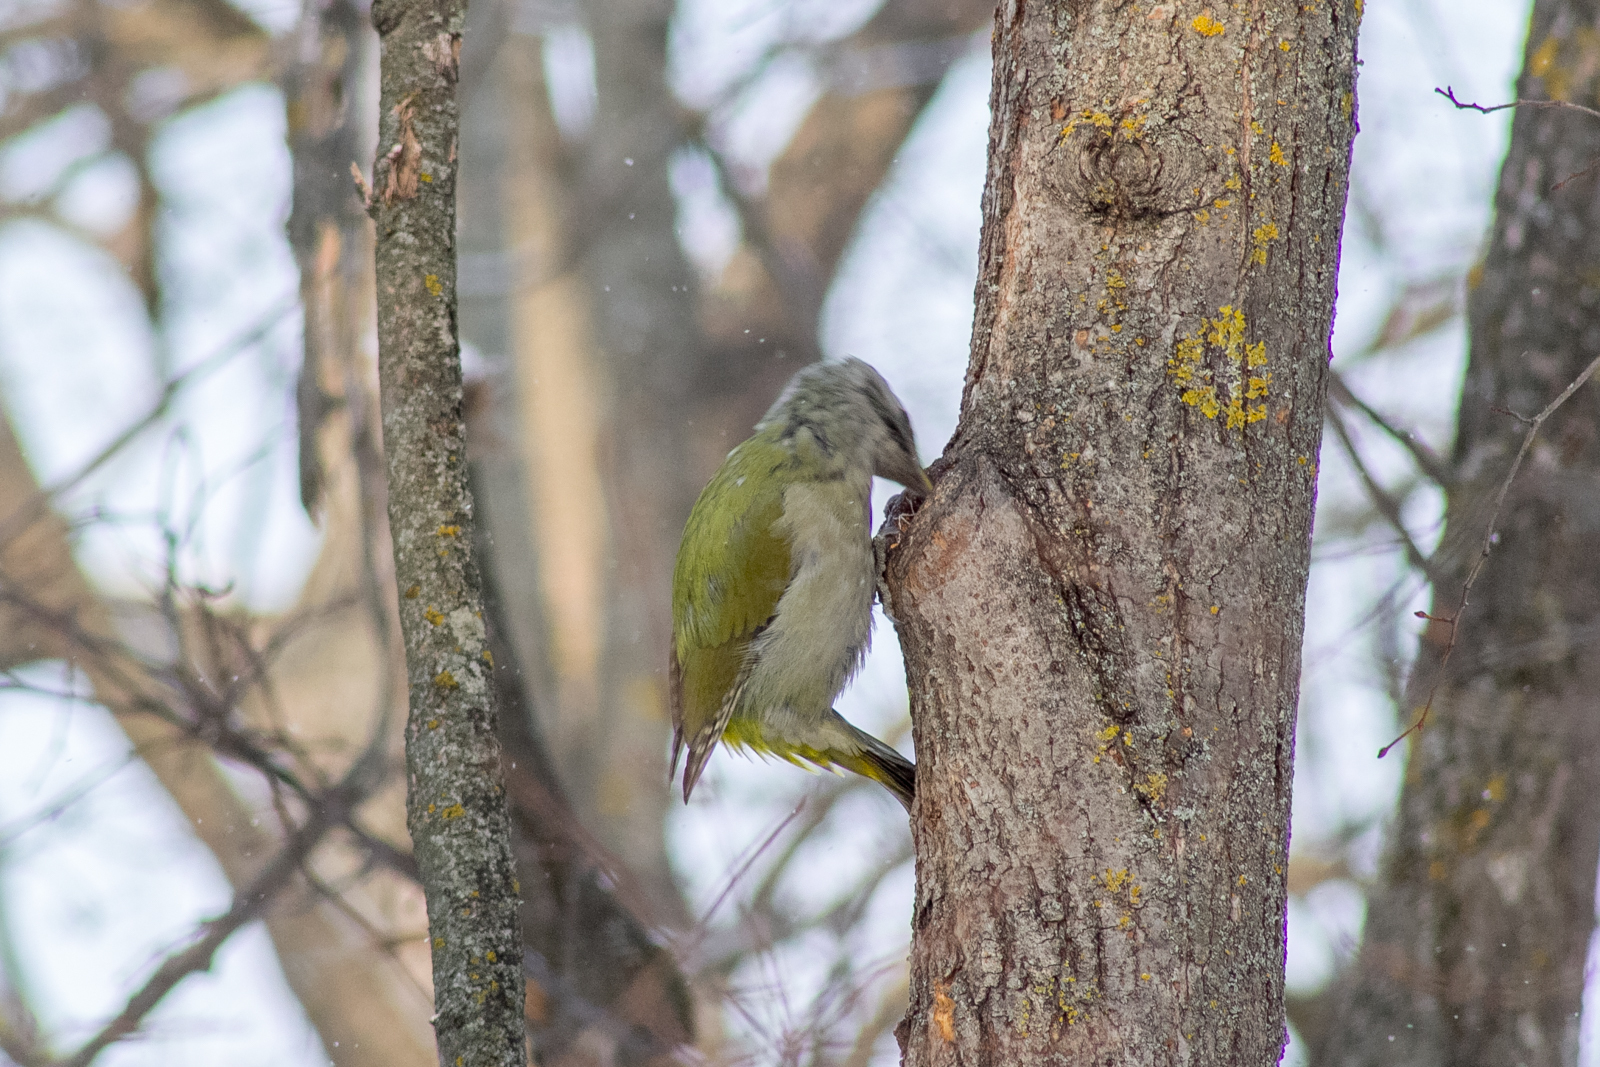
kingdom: Animalia
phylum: Chordata
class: Aves
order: Piciformes
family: Picidae
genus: Picus
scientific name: Picus canus
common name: Grey-headed woodpecker
